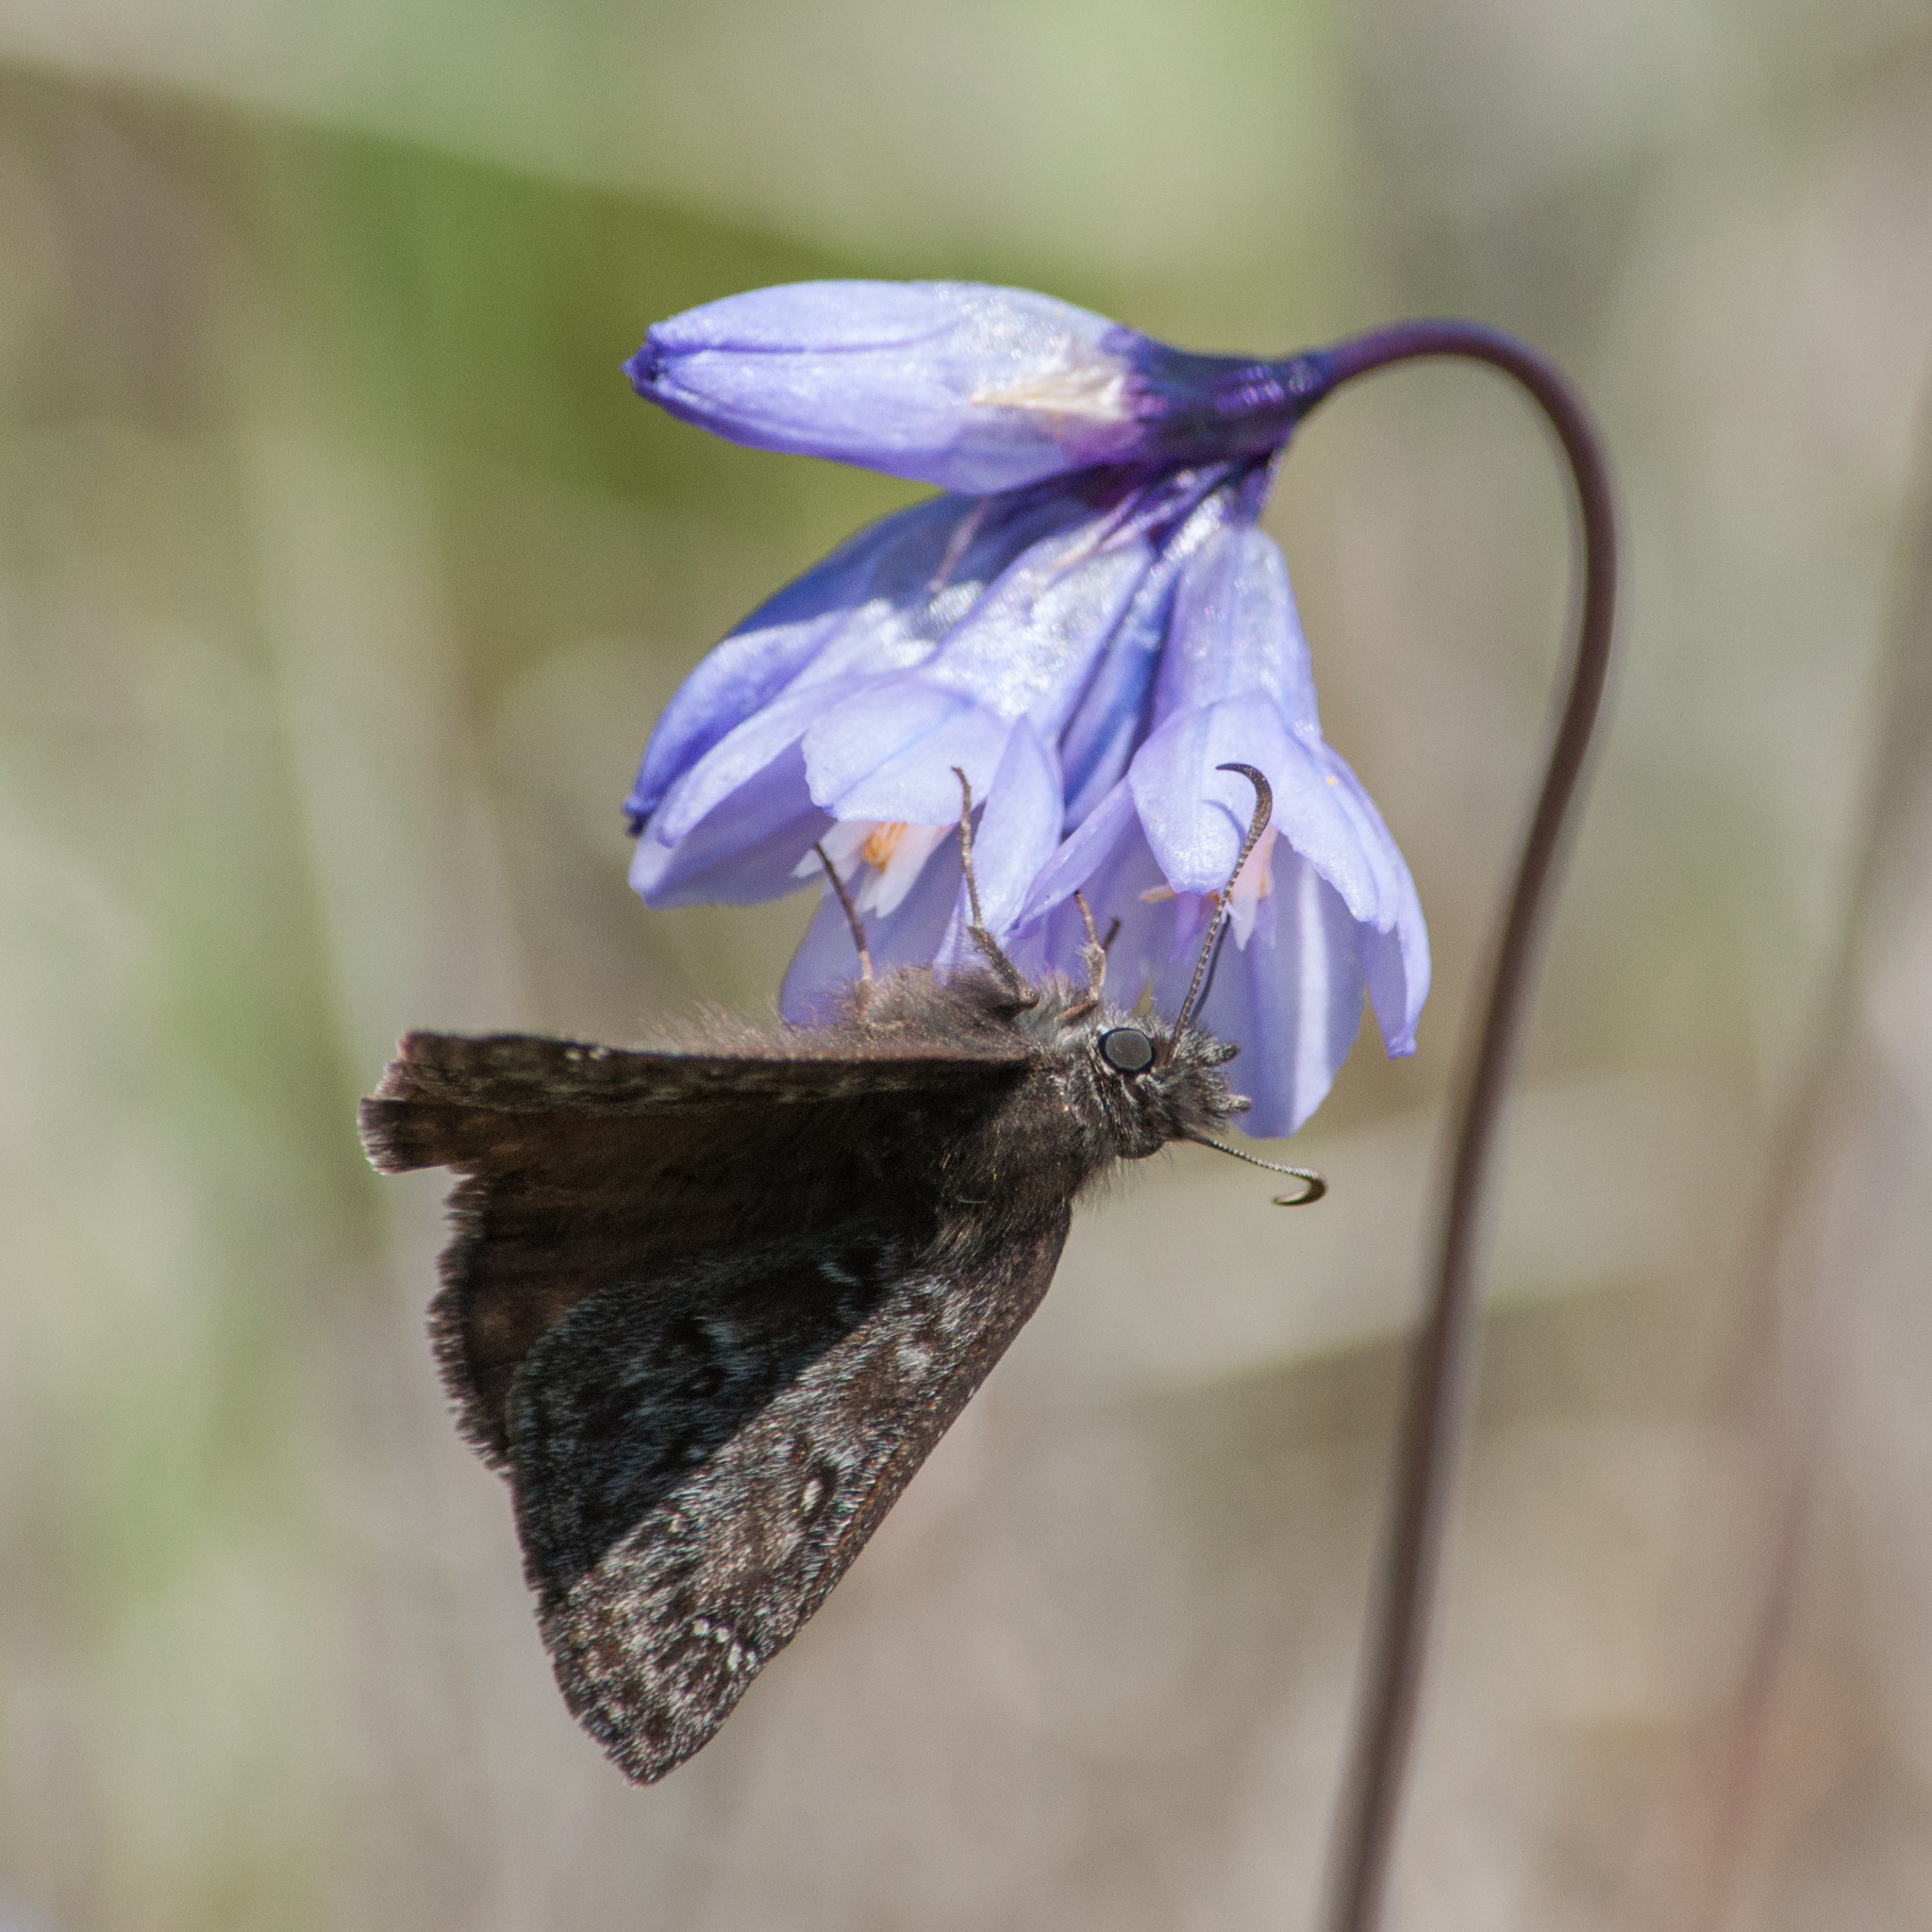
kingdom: Plantae
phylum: Tracheophyta
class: Liliopsida
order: Asparagales
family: Asparagaceae
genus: Dipterostemon
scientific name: Dipterostemon capitatus
